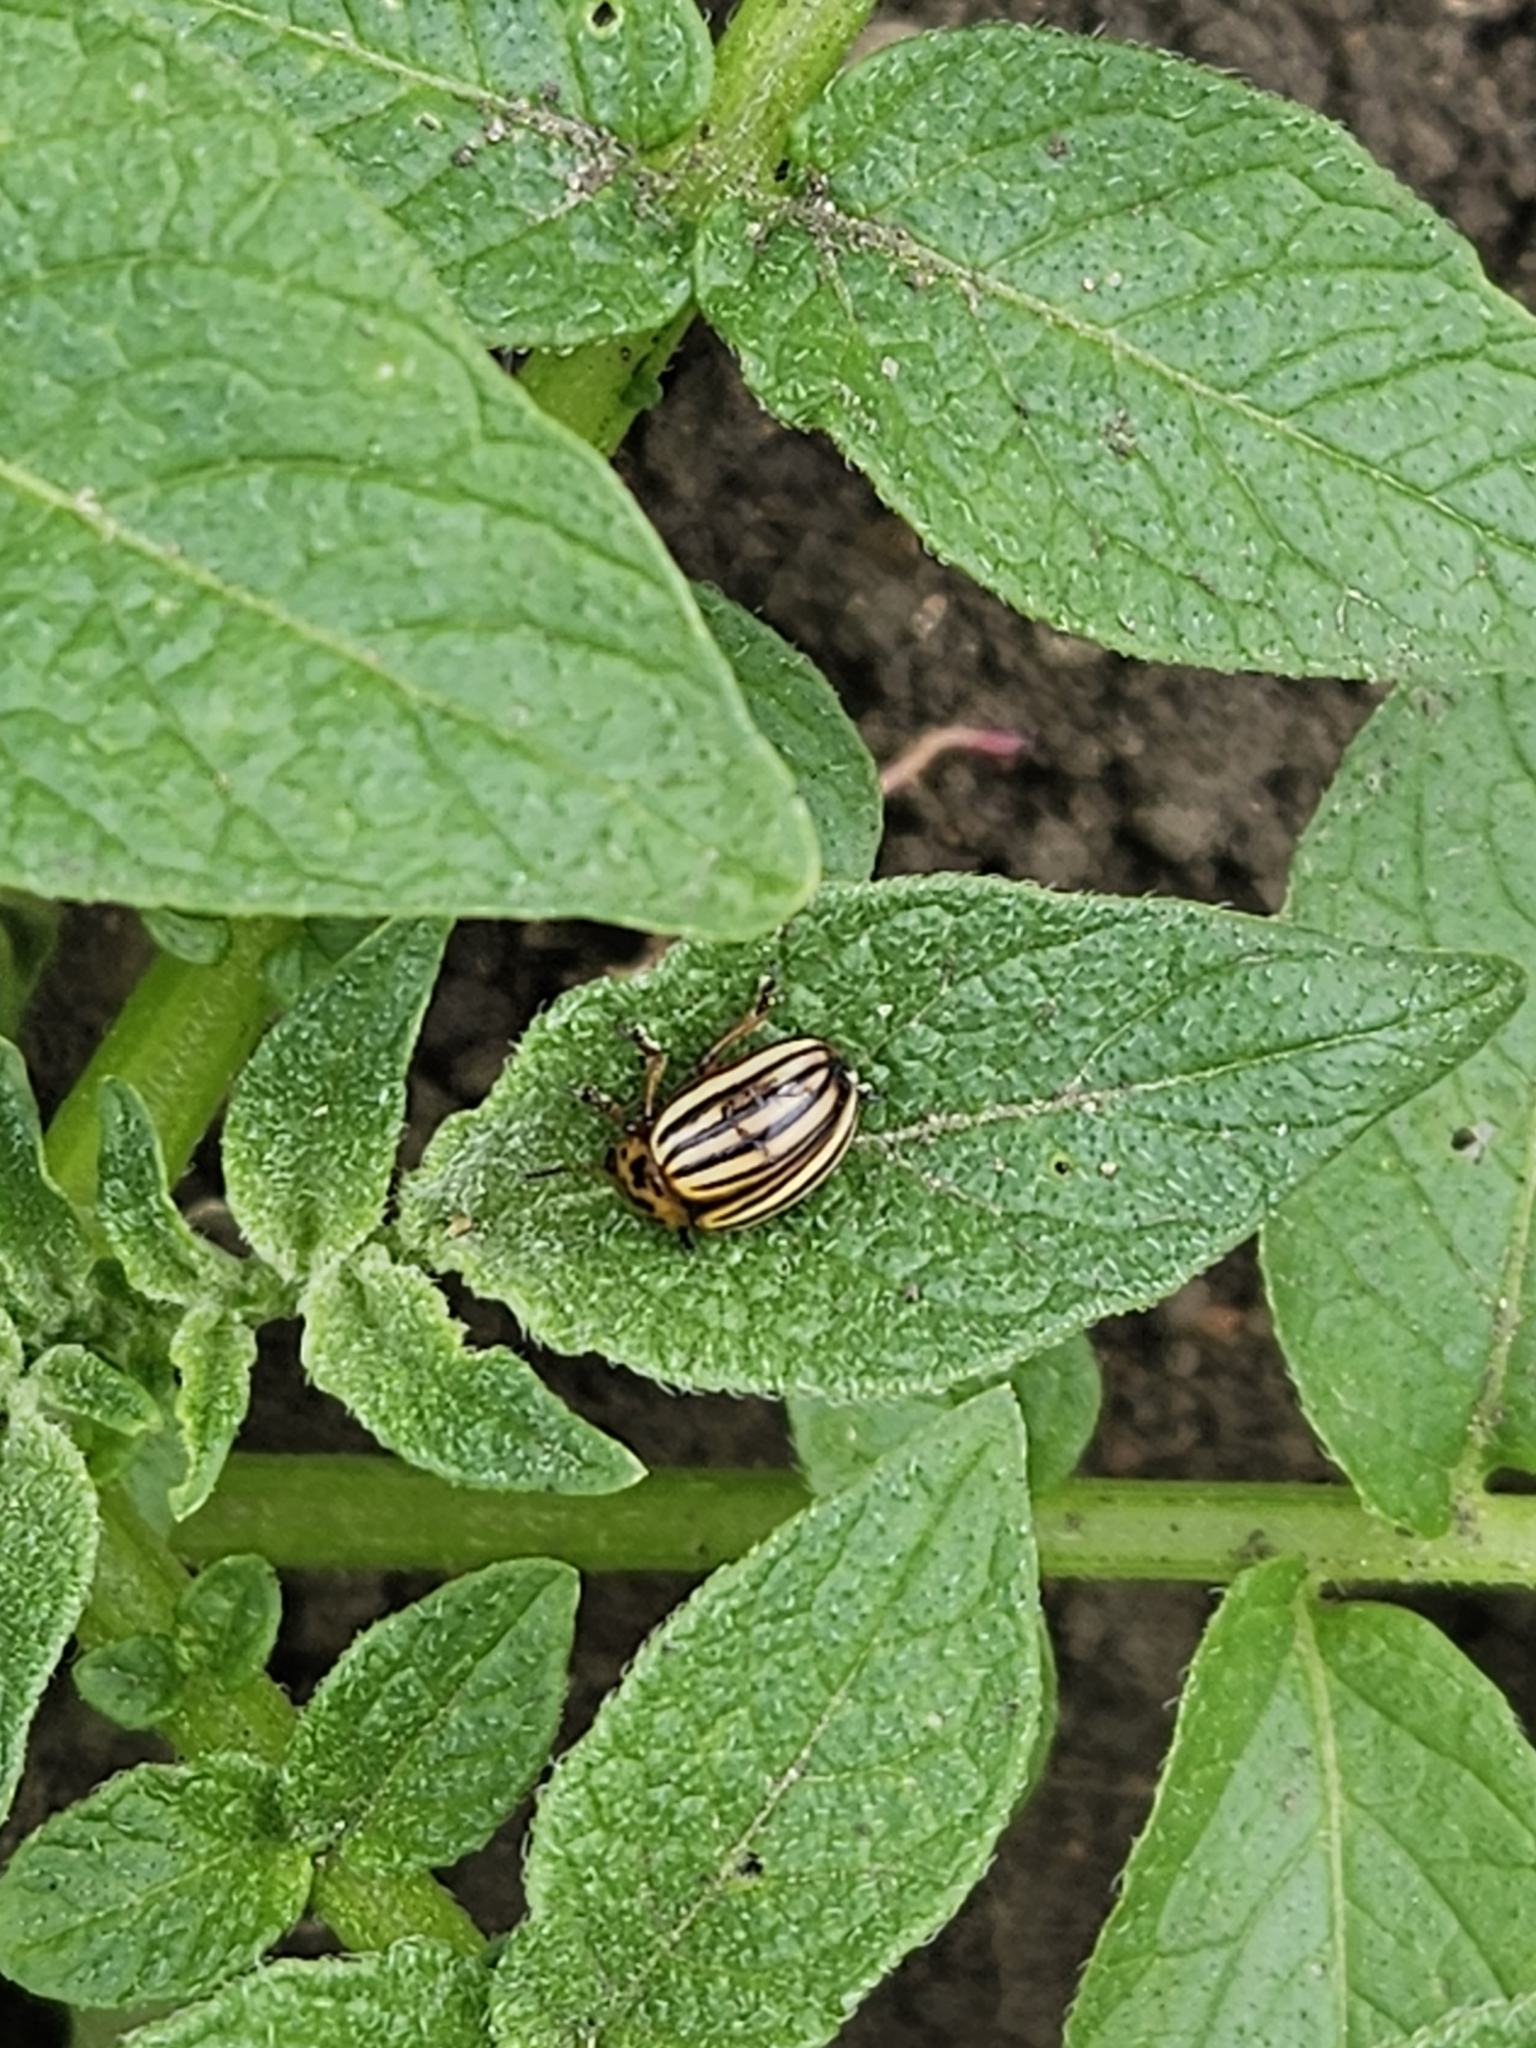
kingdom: Animalia
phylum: Arthropoda
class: Insecta
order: Coleoptera
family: Chrysomelidae
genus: Leptinotarsa
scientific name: Leptinotarsa decemlineata
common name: Colorado potato beetle
